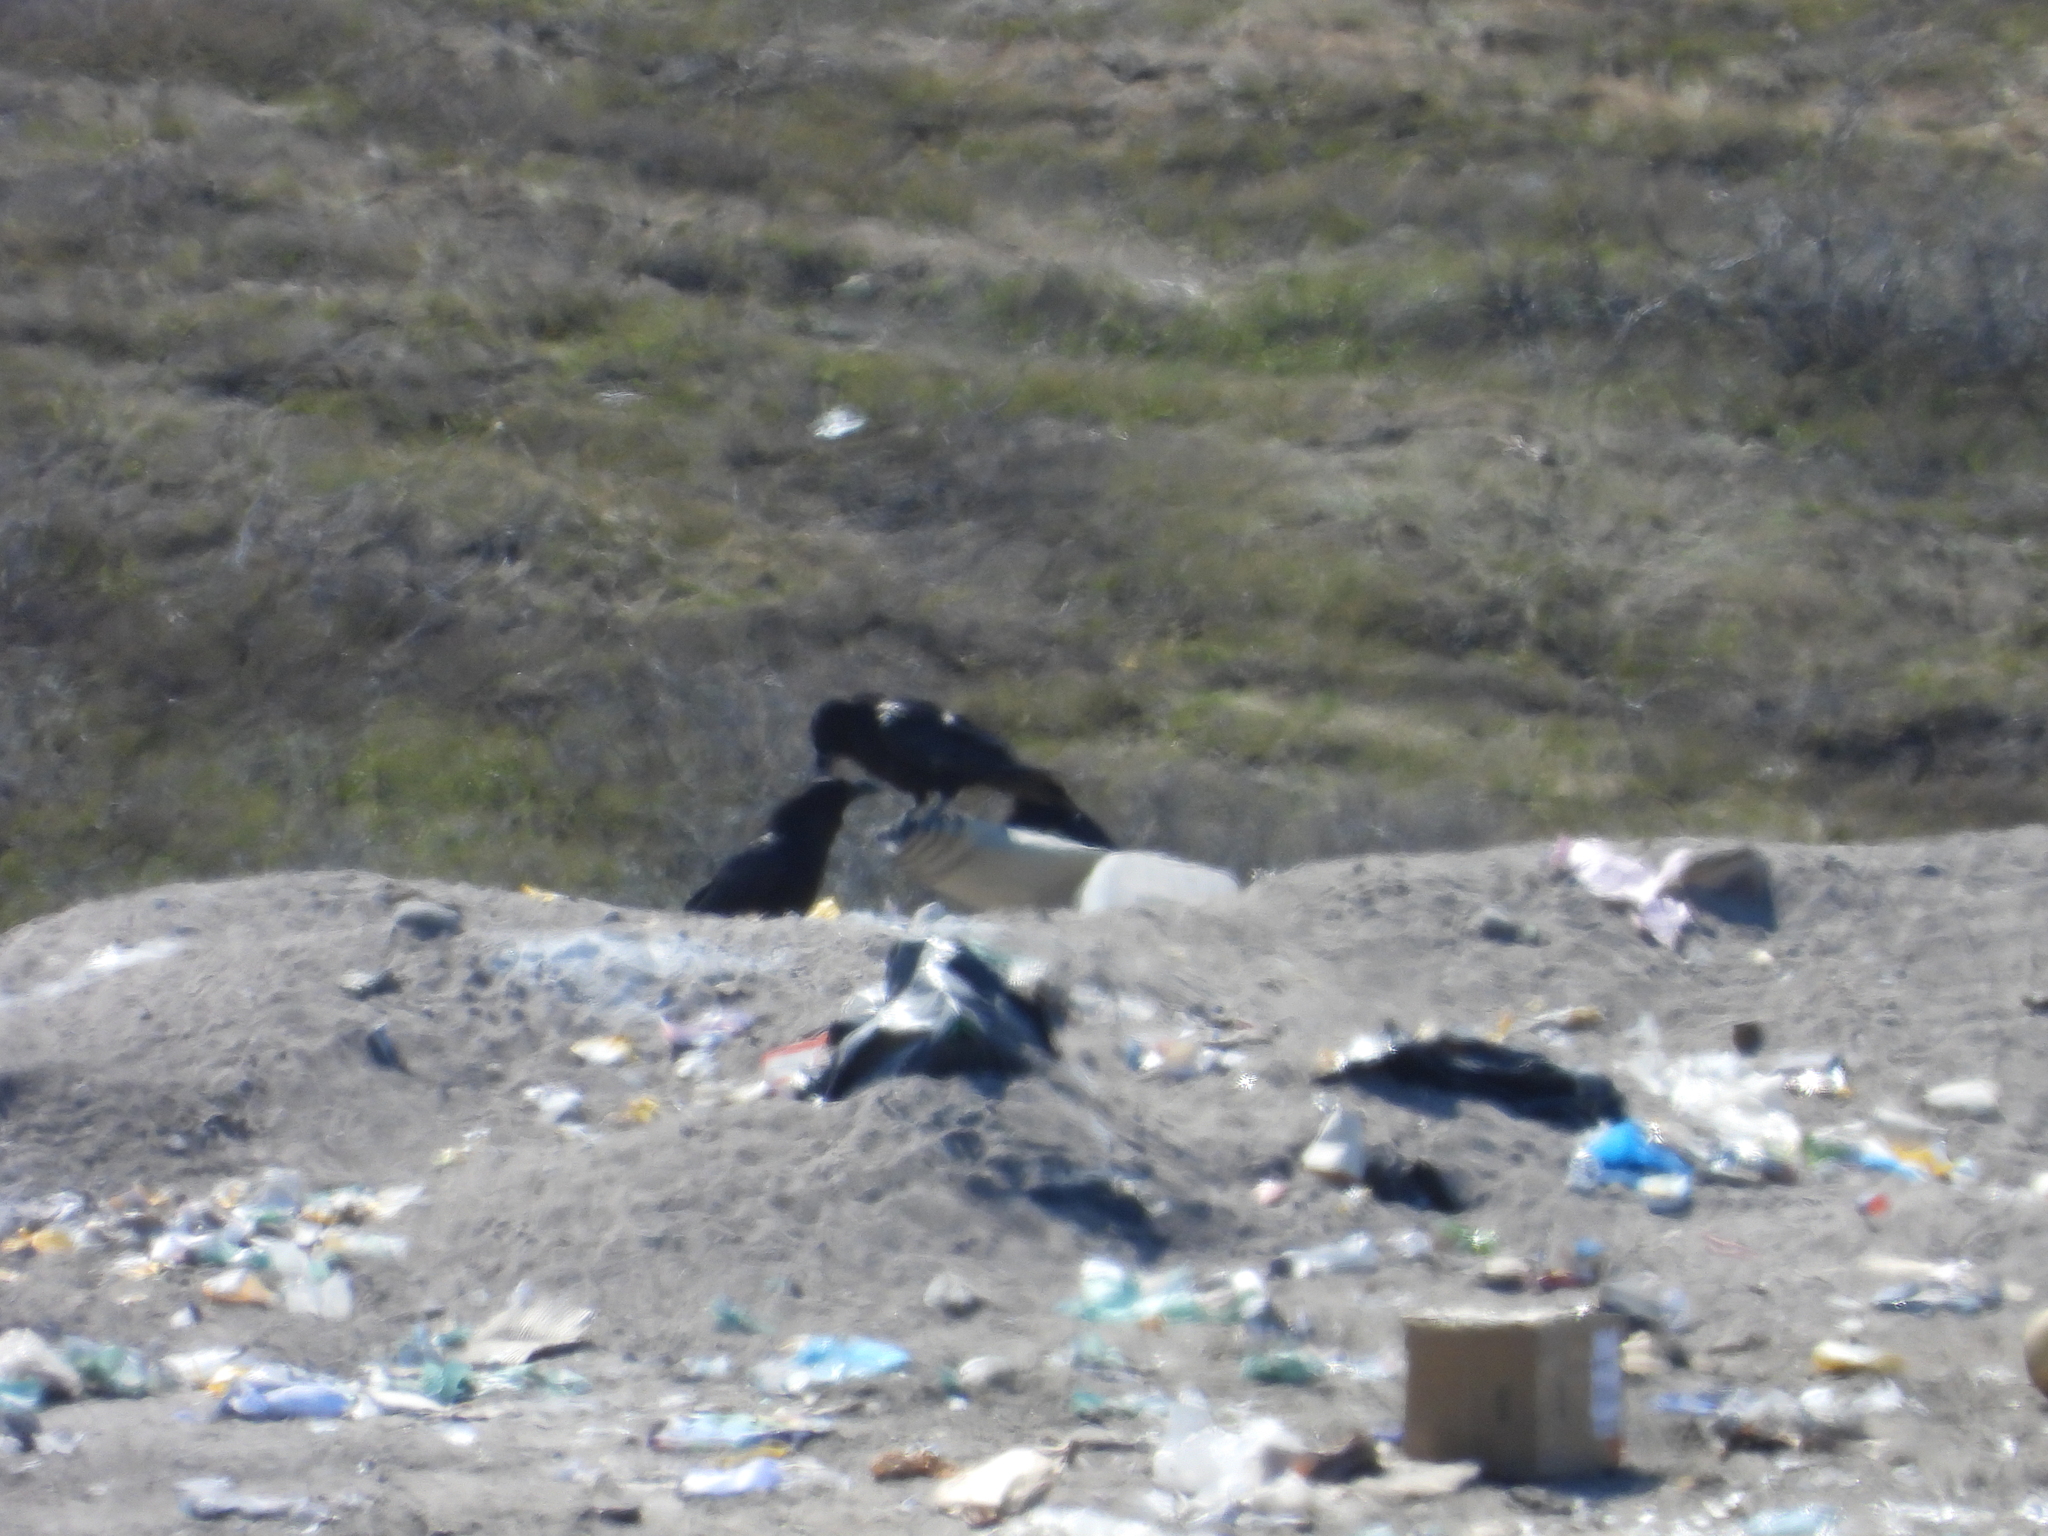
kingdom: Animalia
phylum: Chordata
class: Aves
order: Passeriformes
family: Corvidae
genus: Corvus
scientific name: Corvus corax
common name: Common raven
